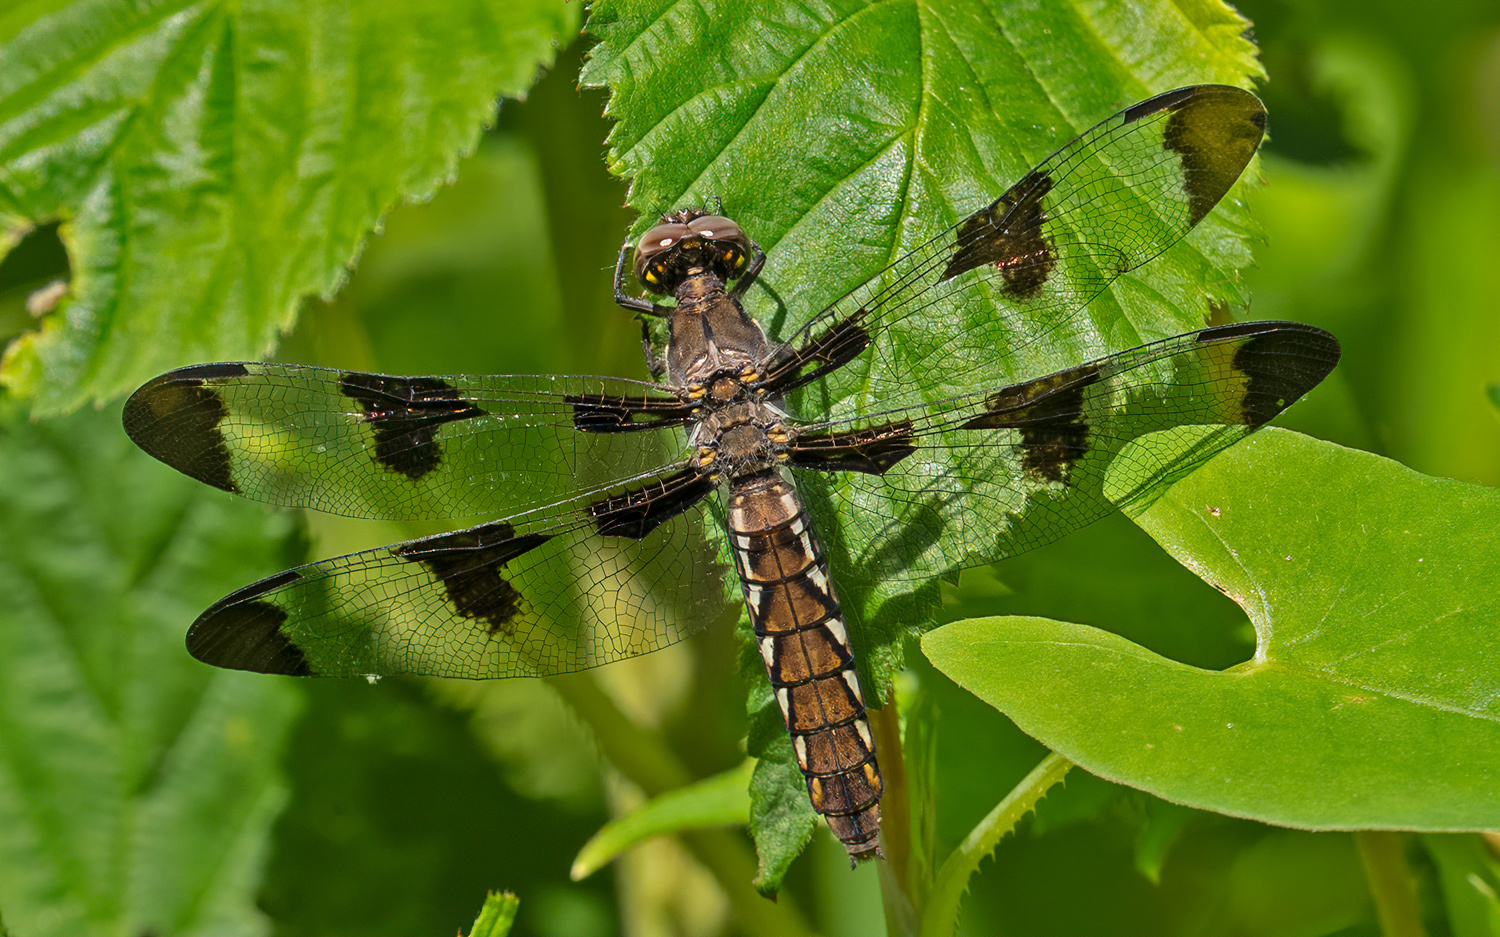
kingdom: Animalia
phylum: Arthropoda
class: Insecta
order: Odonata
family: Libellulidae
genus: Plathemis
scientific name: Plathemis lydia
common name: Common whitetail
